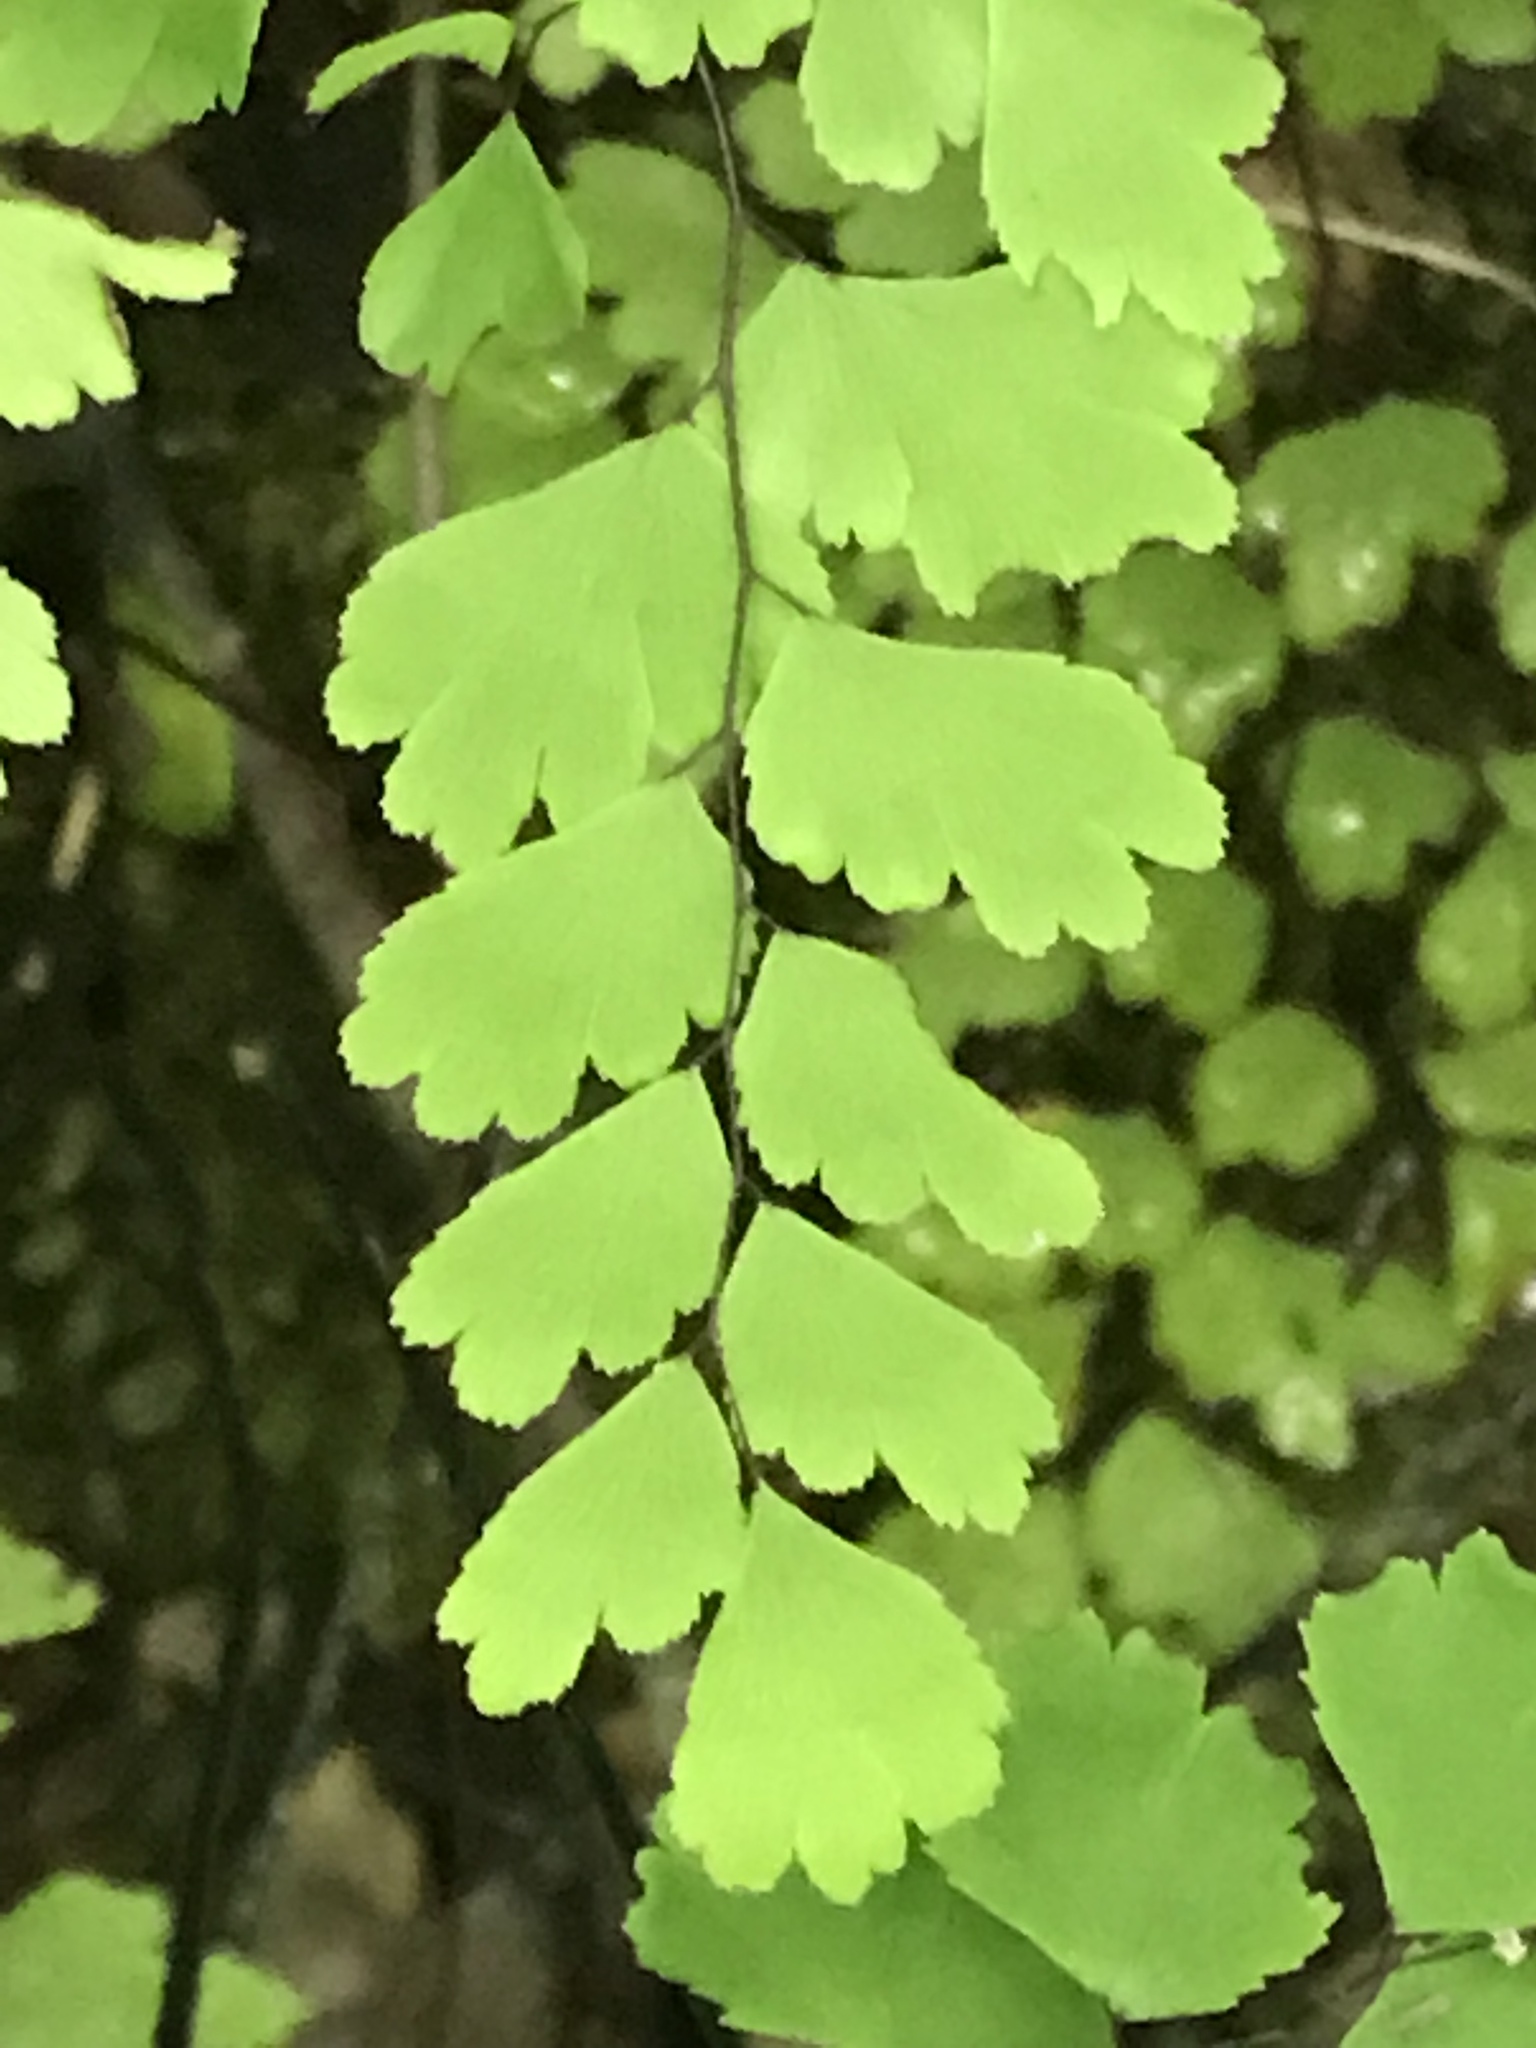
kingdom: Plantae
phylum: Tracheophyta
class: Polypodiopsida
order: Polypodiales
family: Pteridaceae
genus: Adiantum
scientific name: Adiantum capillus-veneris
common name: Maidenhair fern
